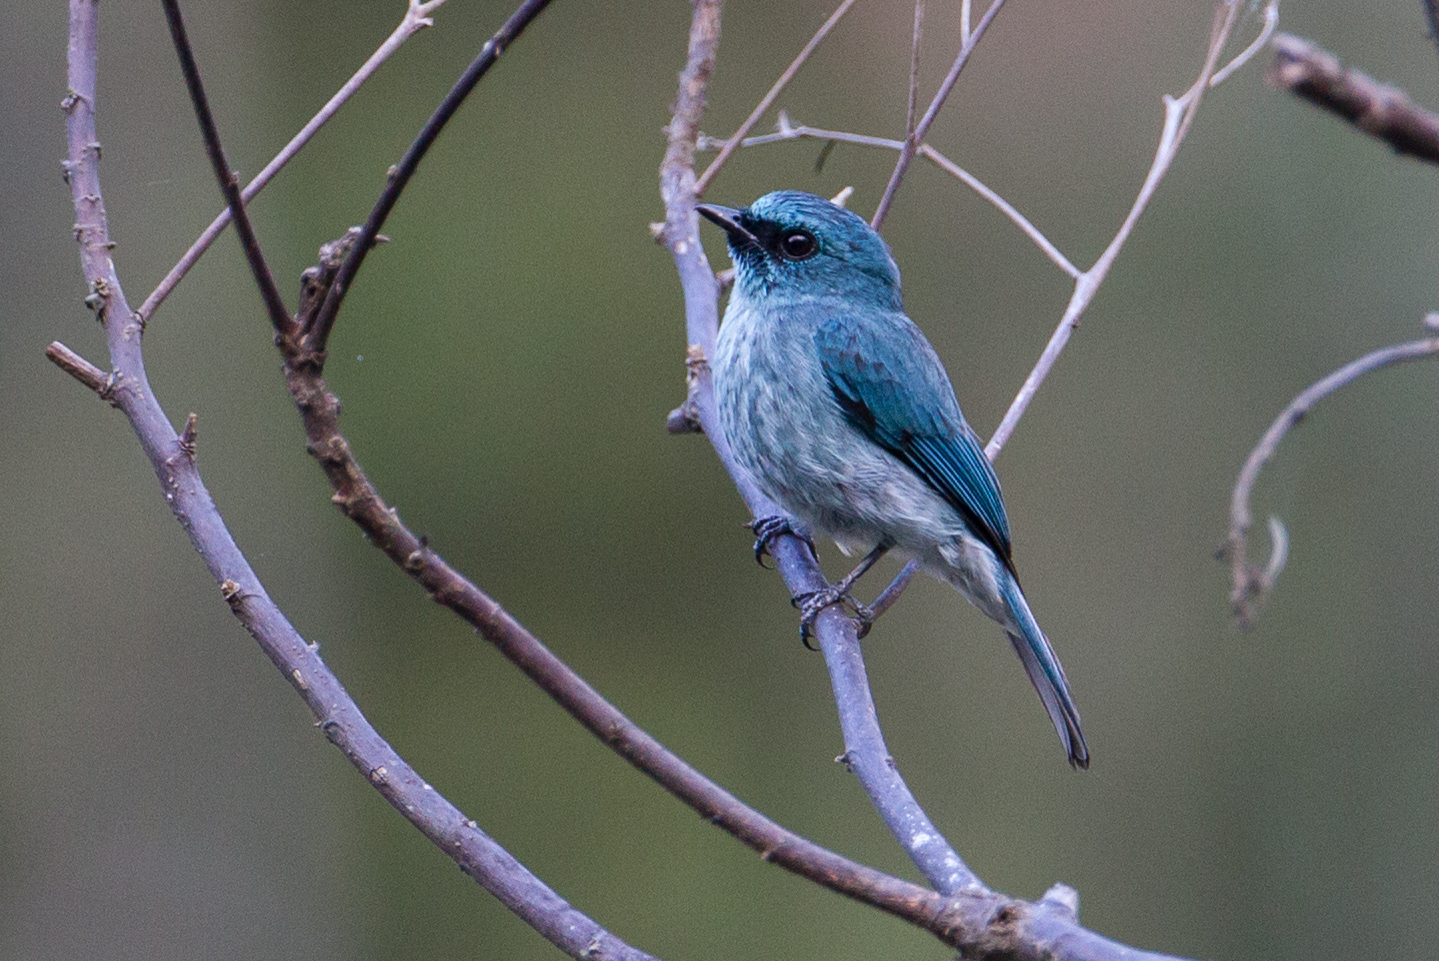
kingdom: Animalia
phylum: Chordata
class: Aves
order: Passeriformes
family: Muscicapidae
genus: Eumyias
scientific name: Eumyias panayensis
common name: Turquoise flycatcher
